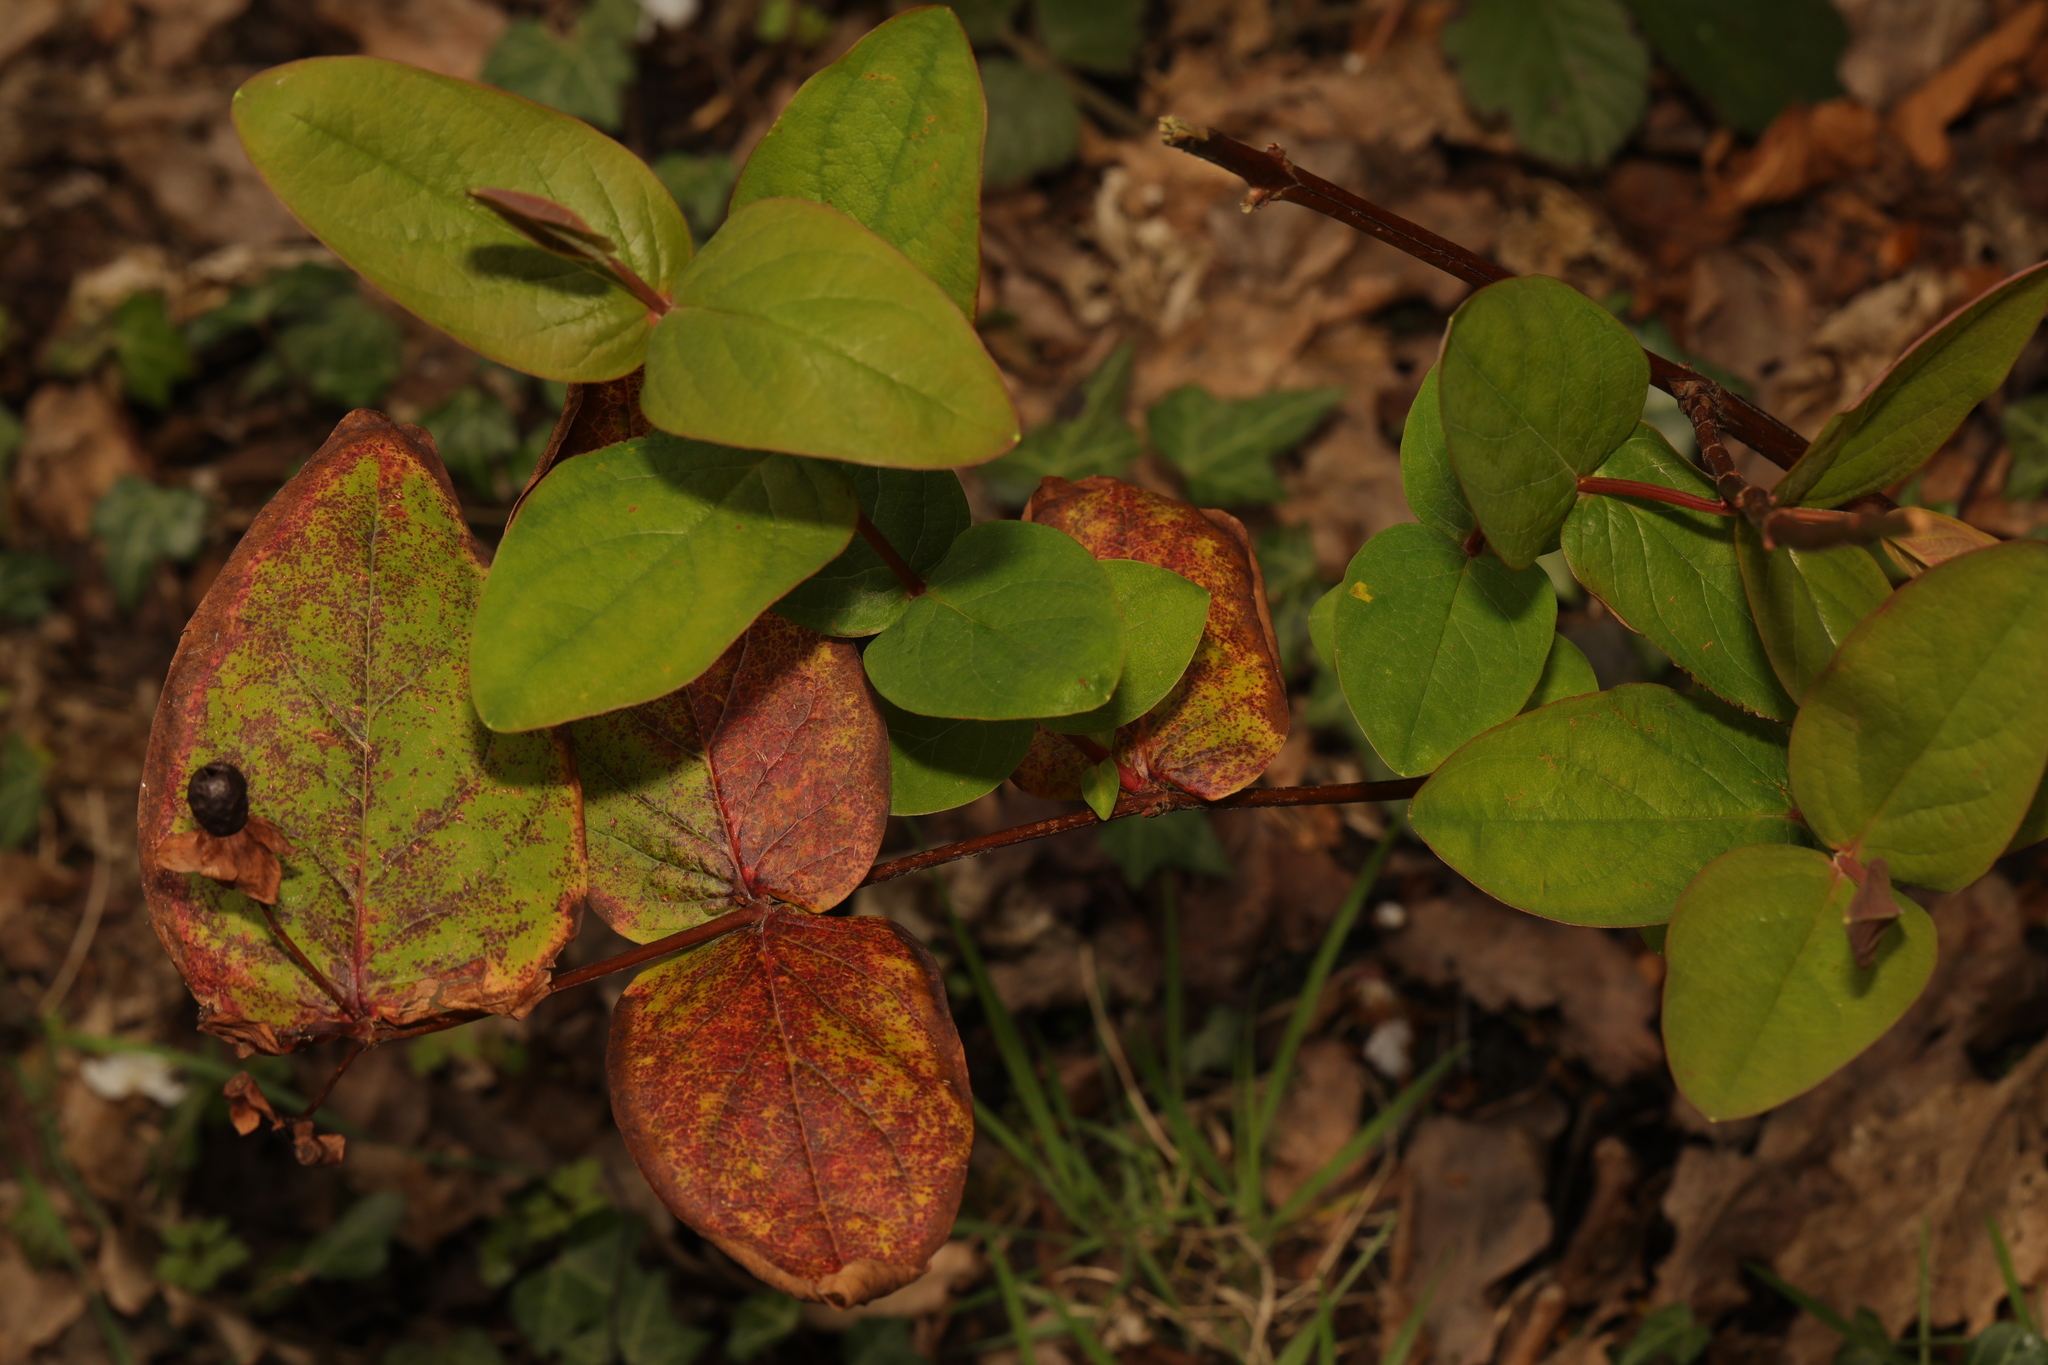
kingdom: Plantae
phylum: Tracheophyta
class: Magnoliopsida
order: Malpighiales
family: Hypericaceae
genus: Hypericum
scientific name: Hypericum androsaemum
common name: Sweet-amber
